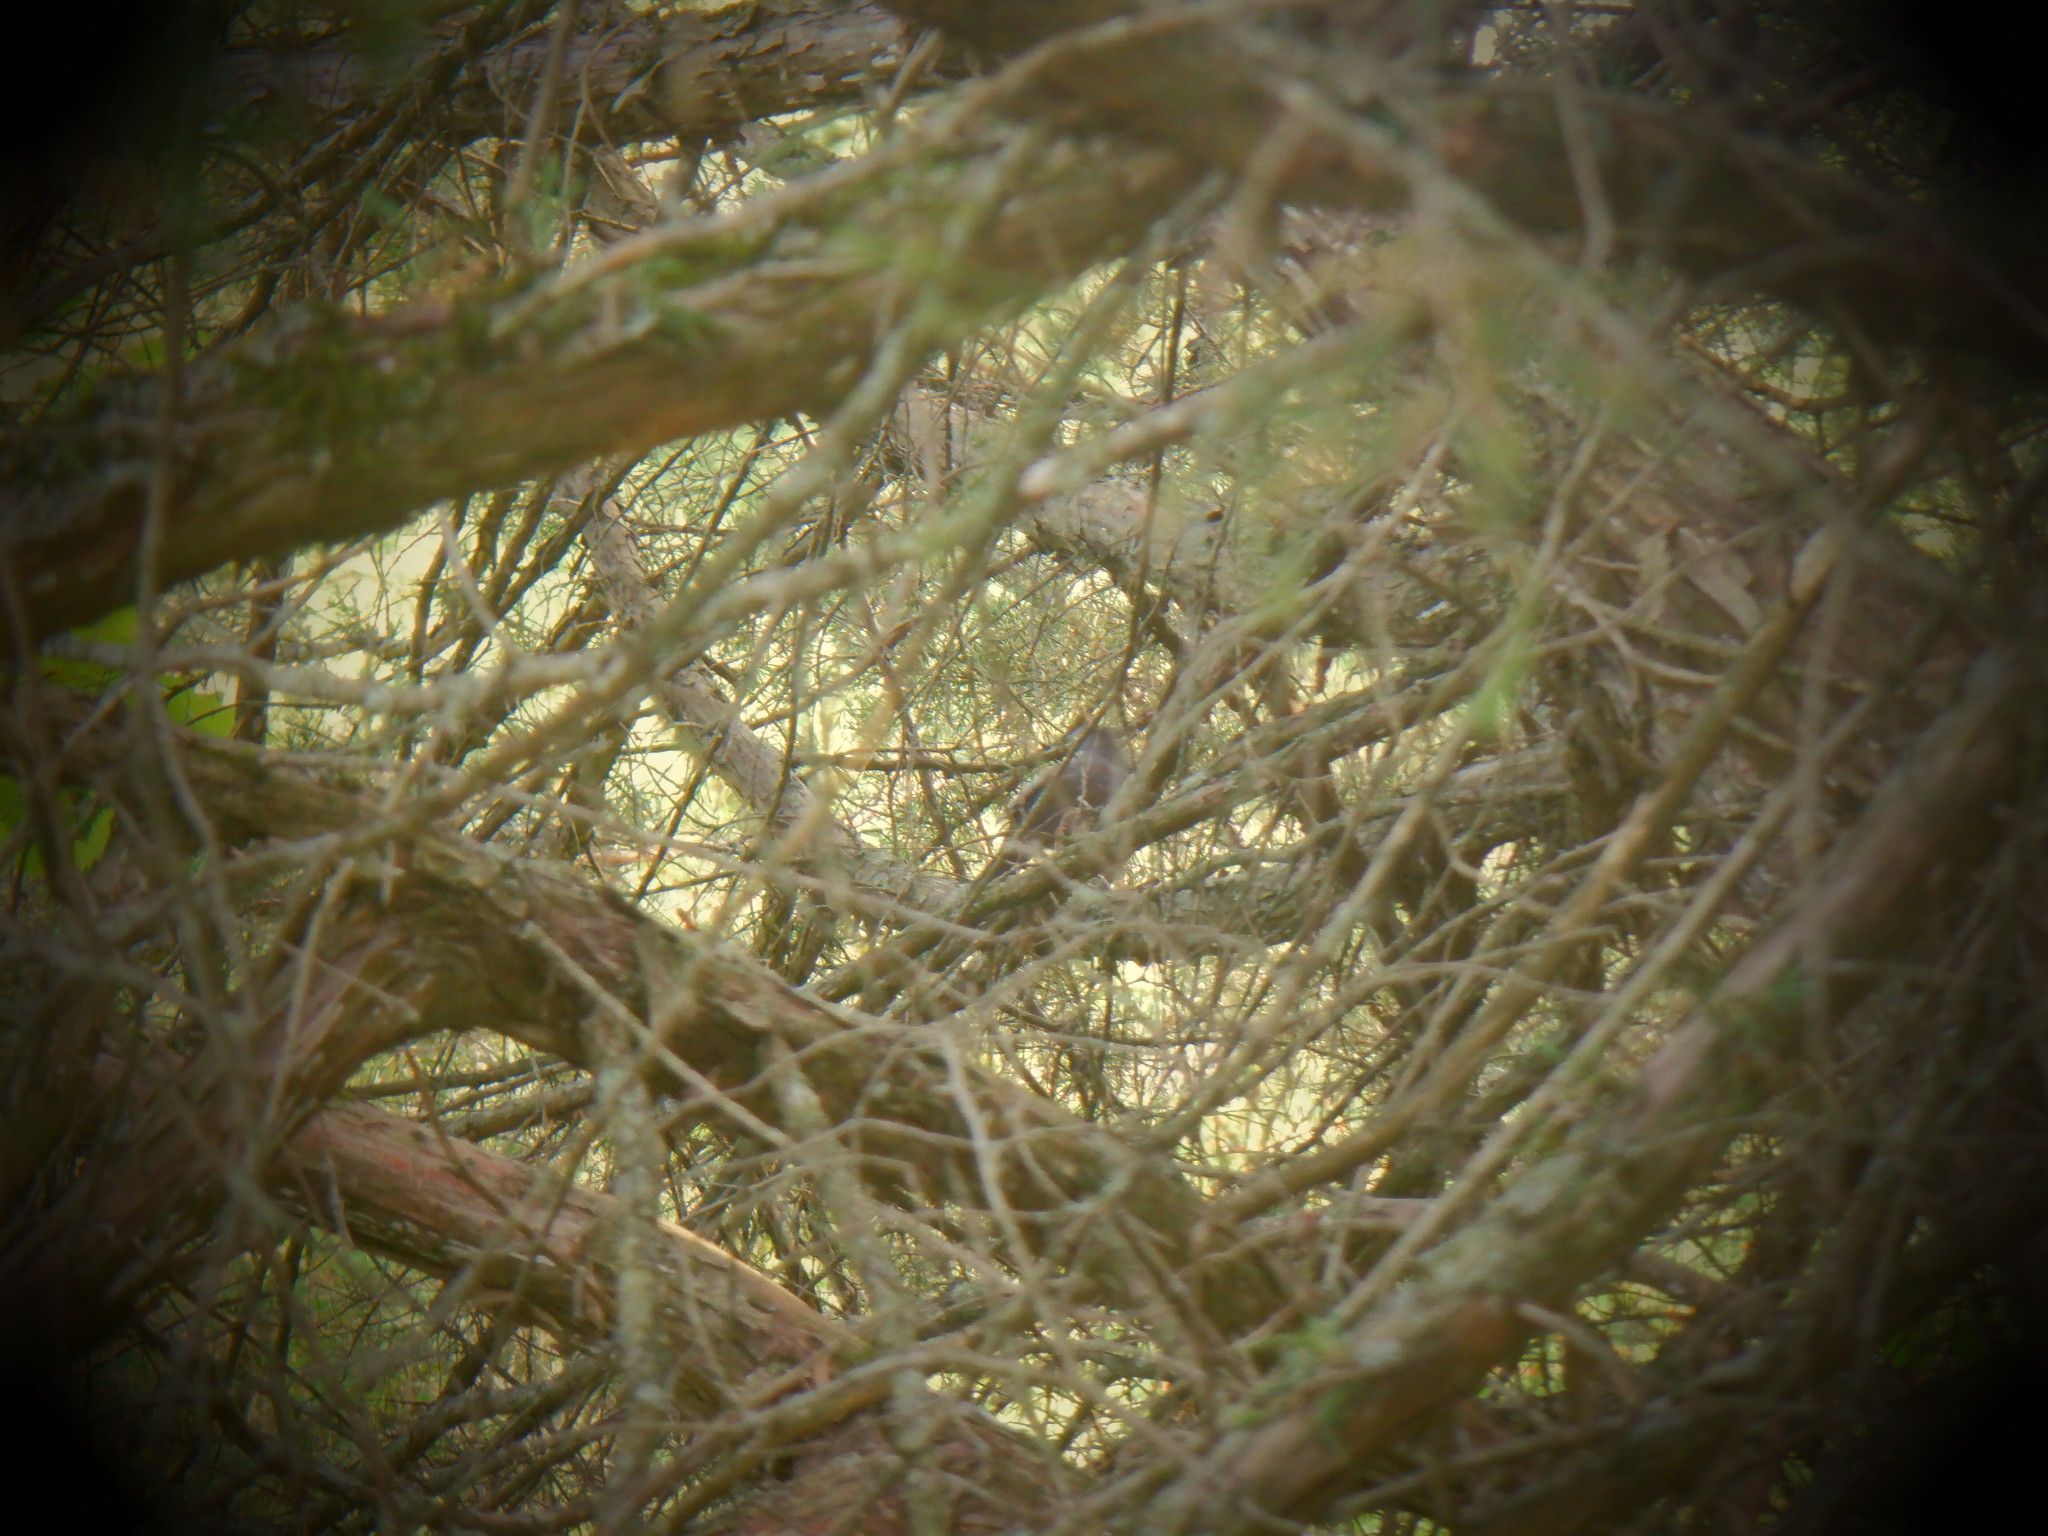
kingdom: Animalia
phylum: Chordata
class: Aves
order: Passeriformes
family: Mimidae
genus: Dumetella
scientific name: Dumetella carolinensis
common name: Gray catbird
